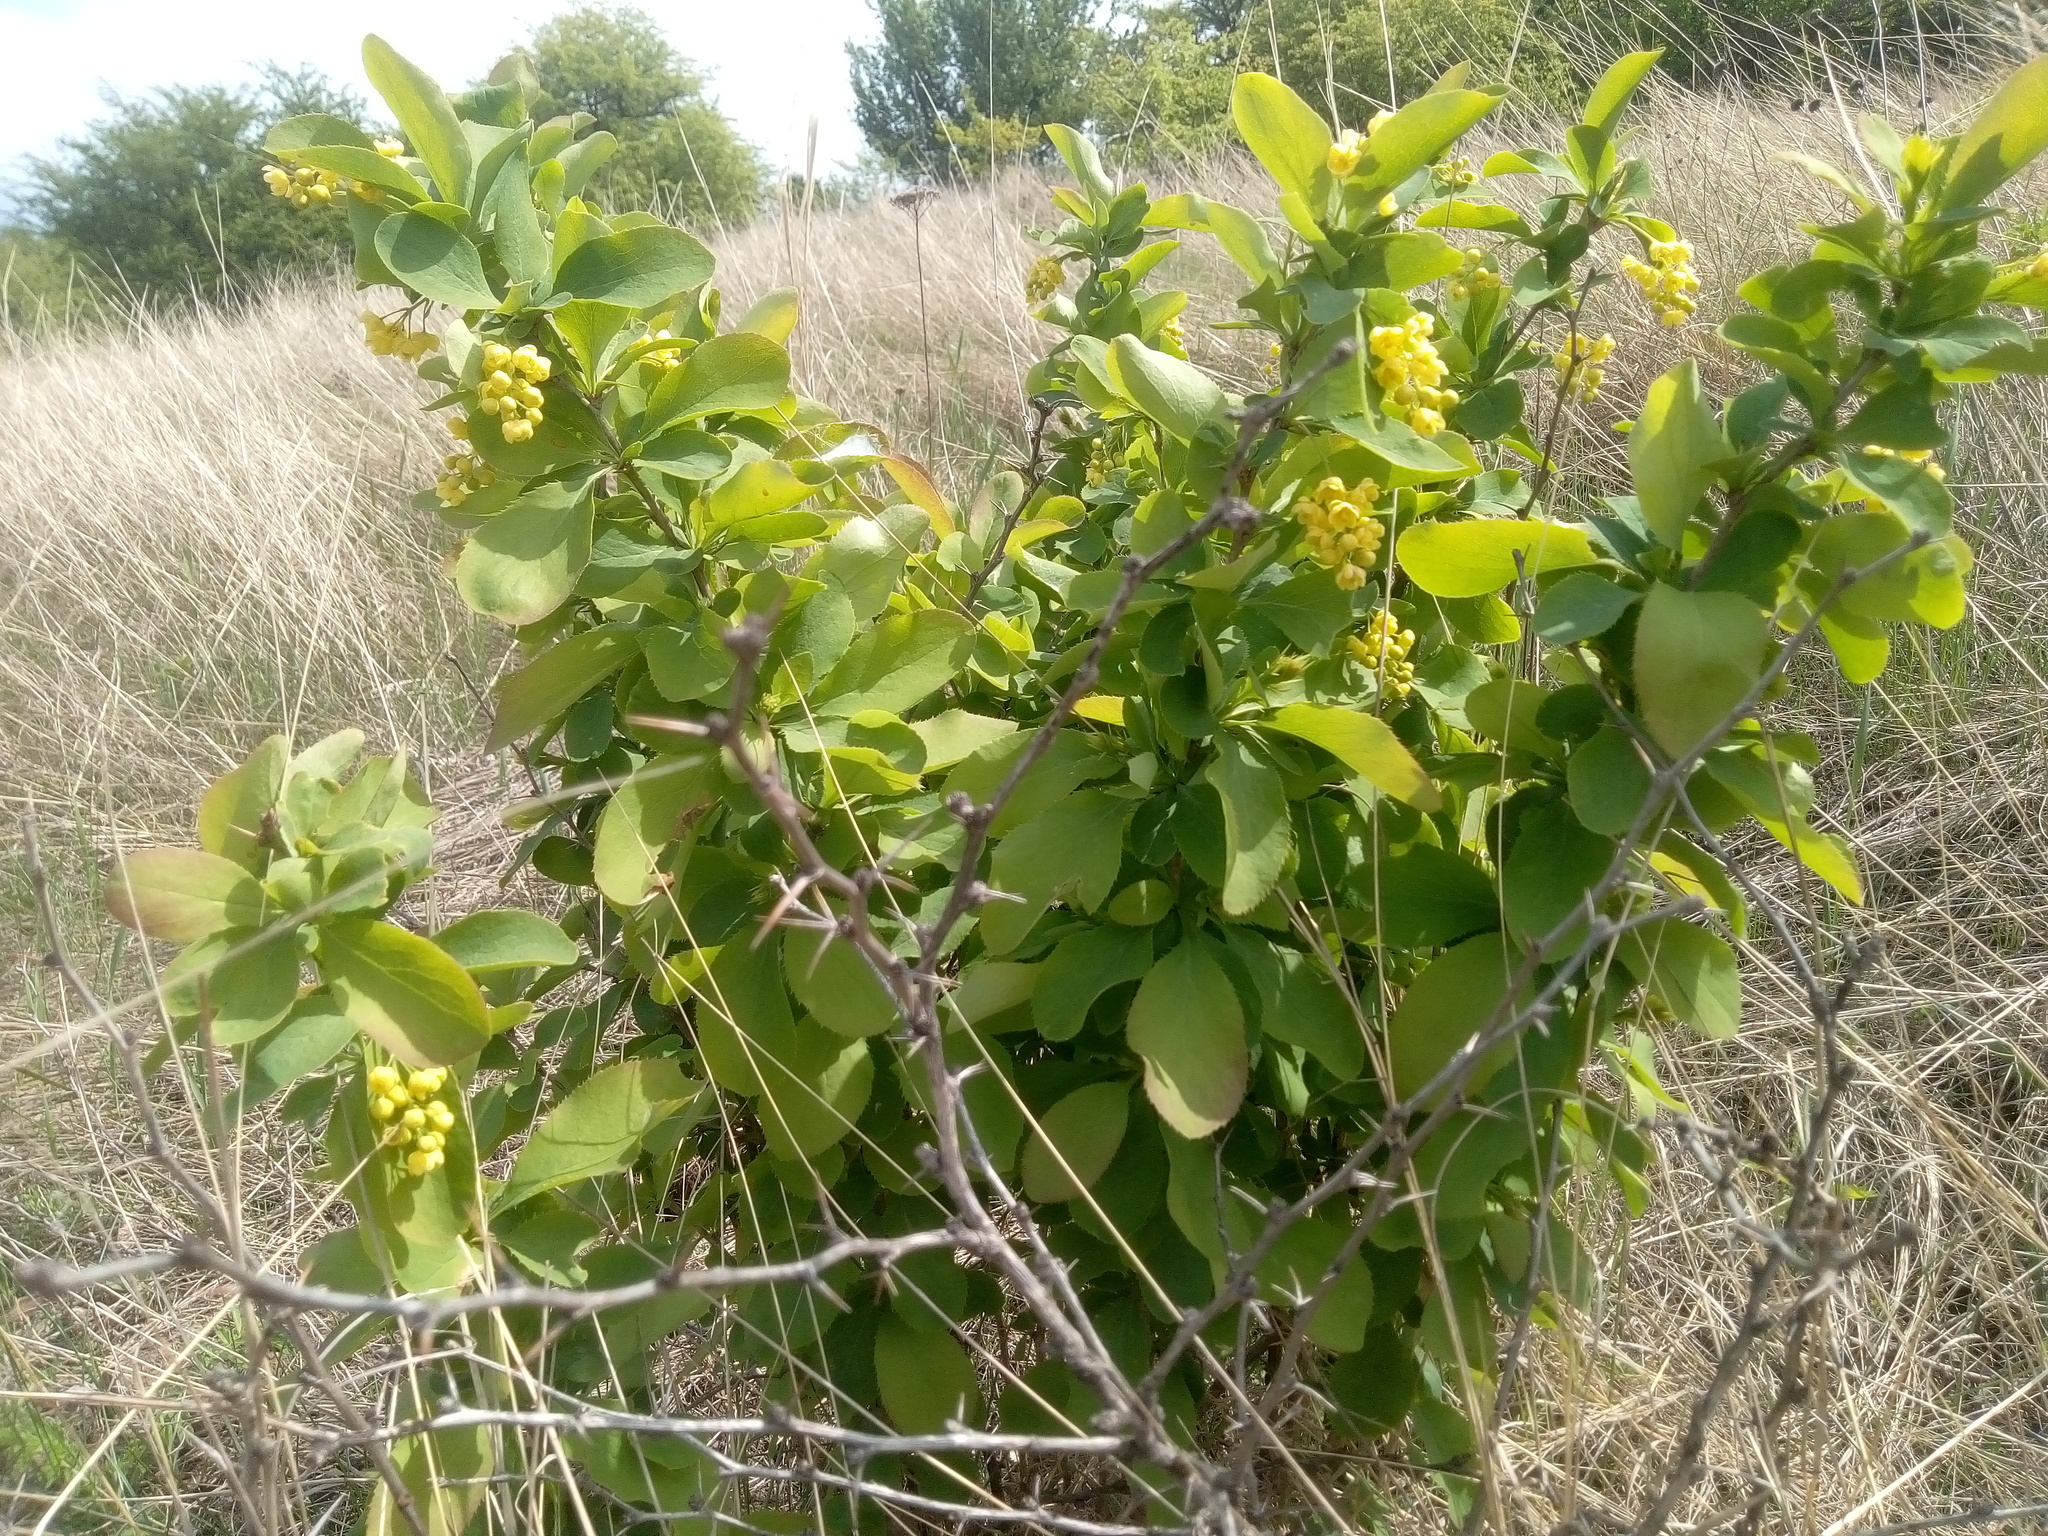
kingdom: Plantae
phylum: Tracheophyta
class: Magnoliopsida
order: Ranunculales
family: Berberidaceae
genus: Berberis
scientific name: Berberis vulgaris
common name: Barberry
